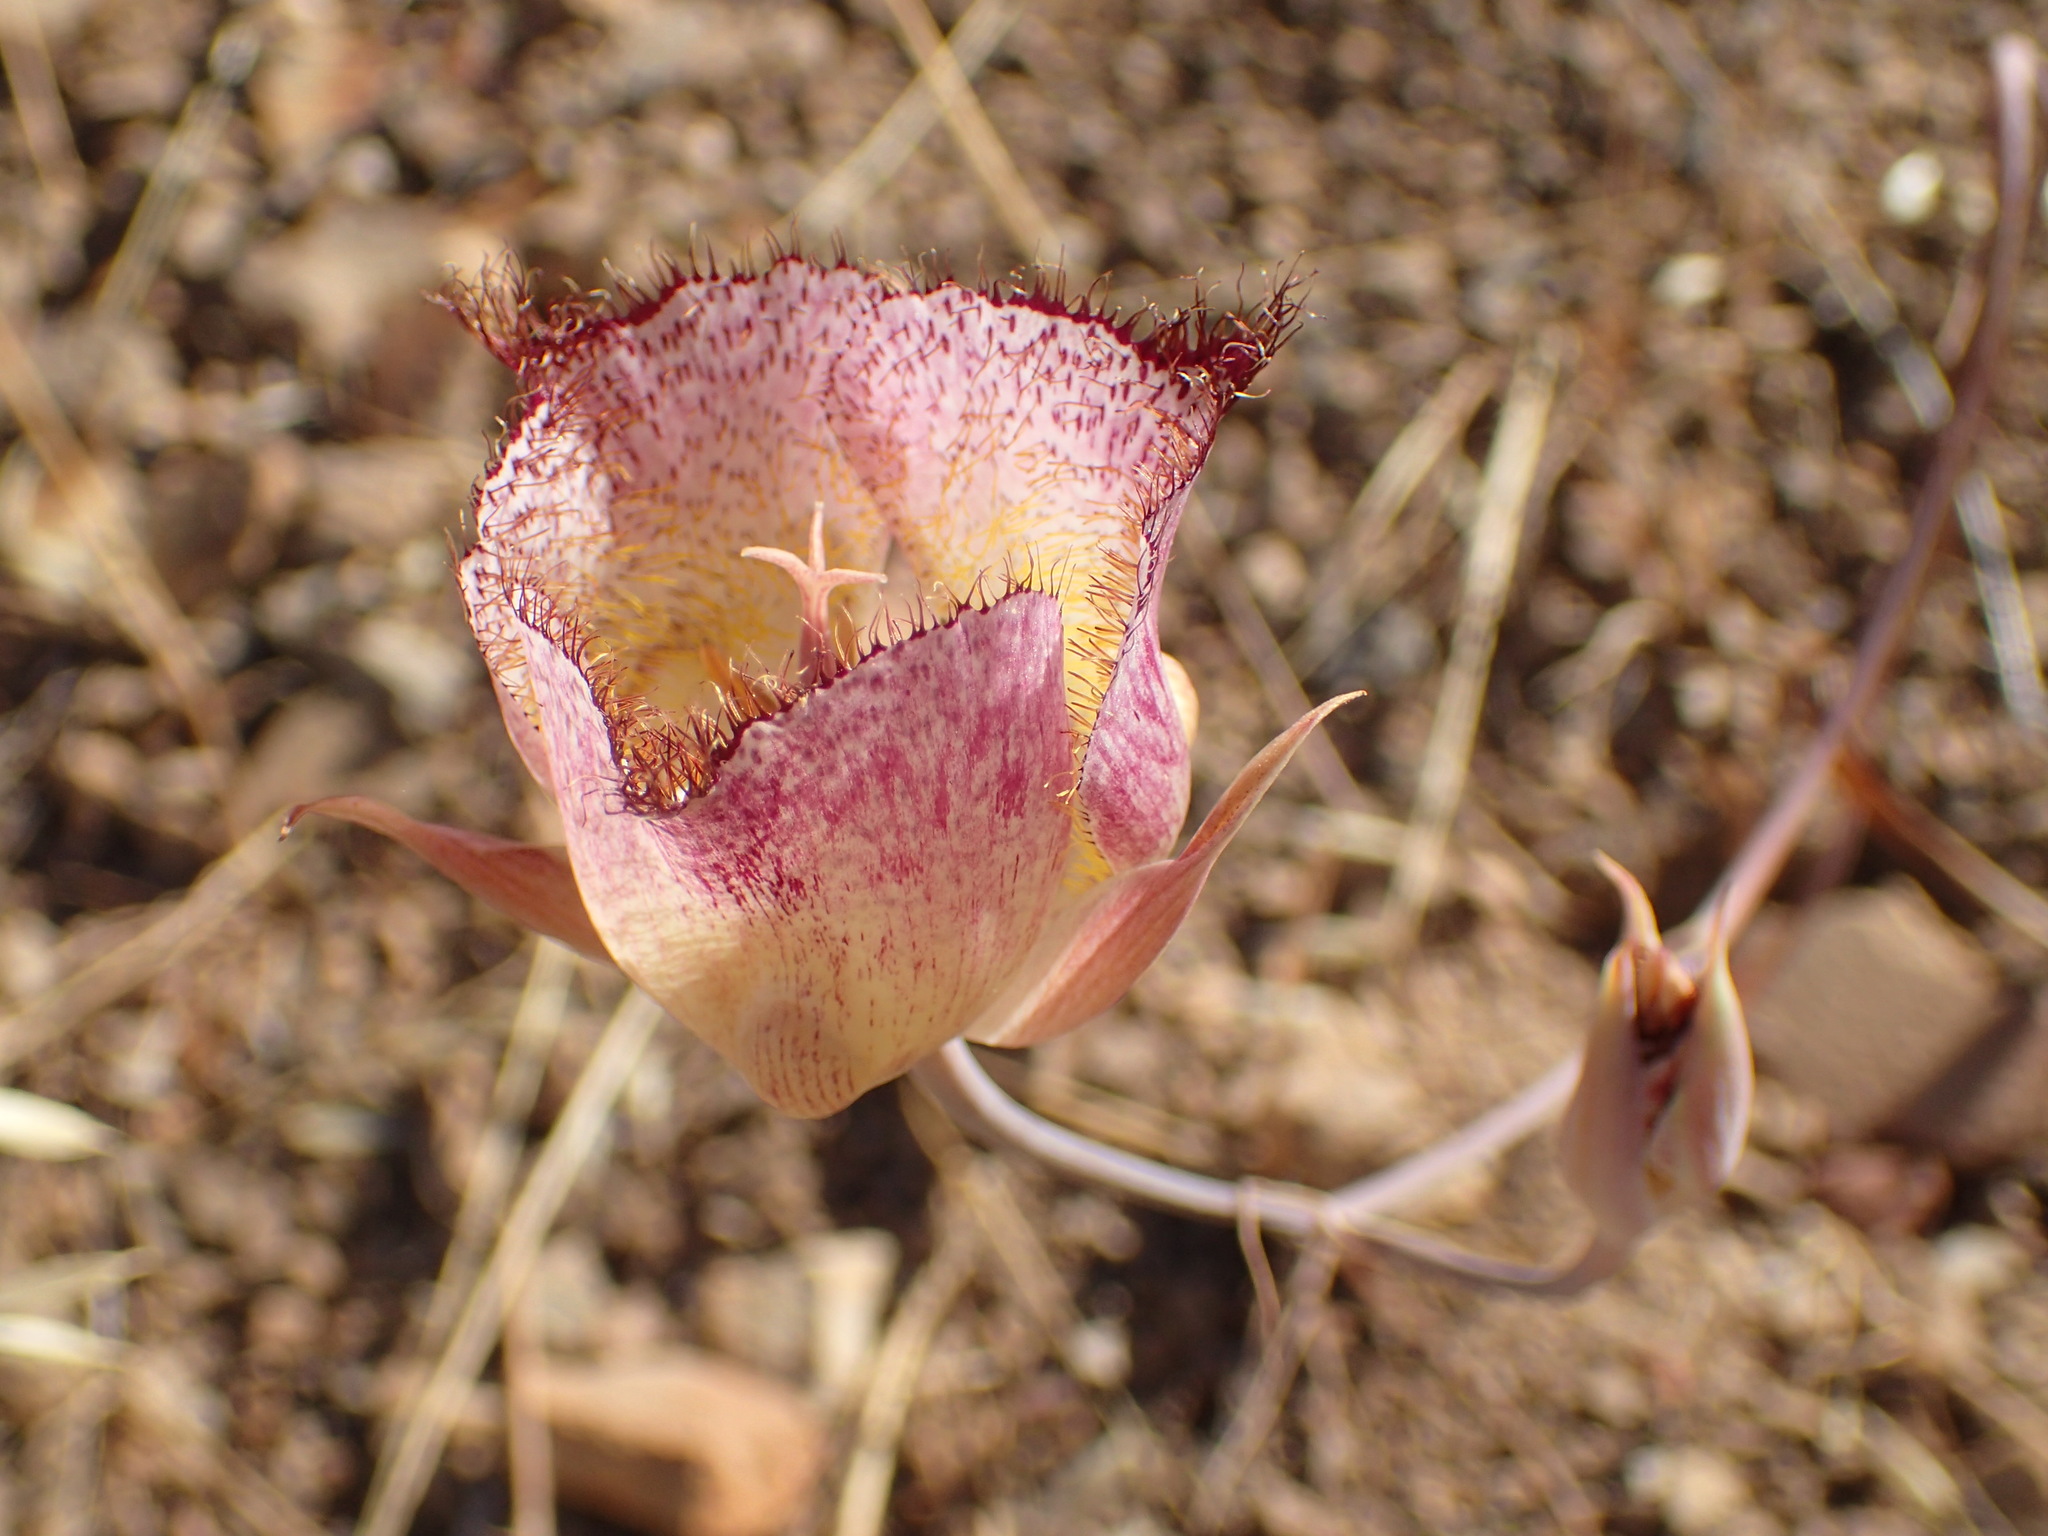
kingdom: Plantae
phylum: Tracheophyta
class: Liliopsida
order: Liliales
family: Liliaceae
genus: Calochortus
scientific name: Calochortus fimbriatus
